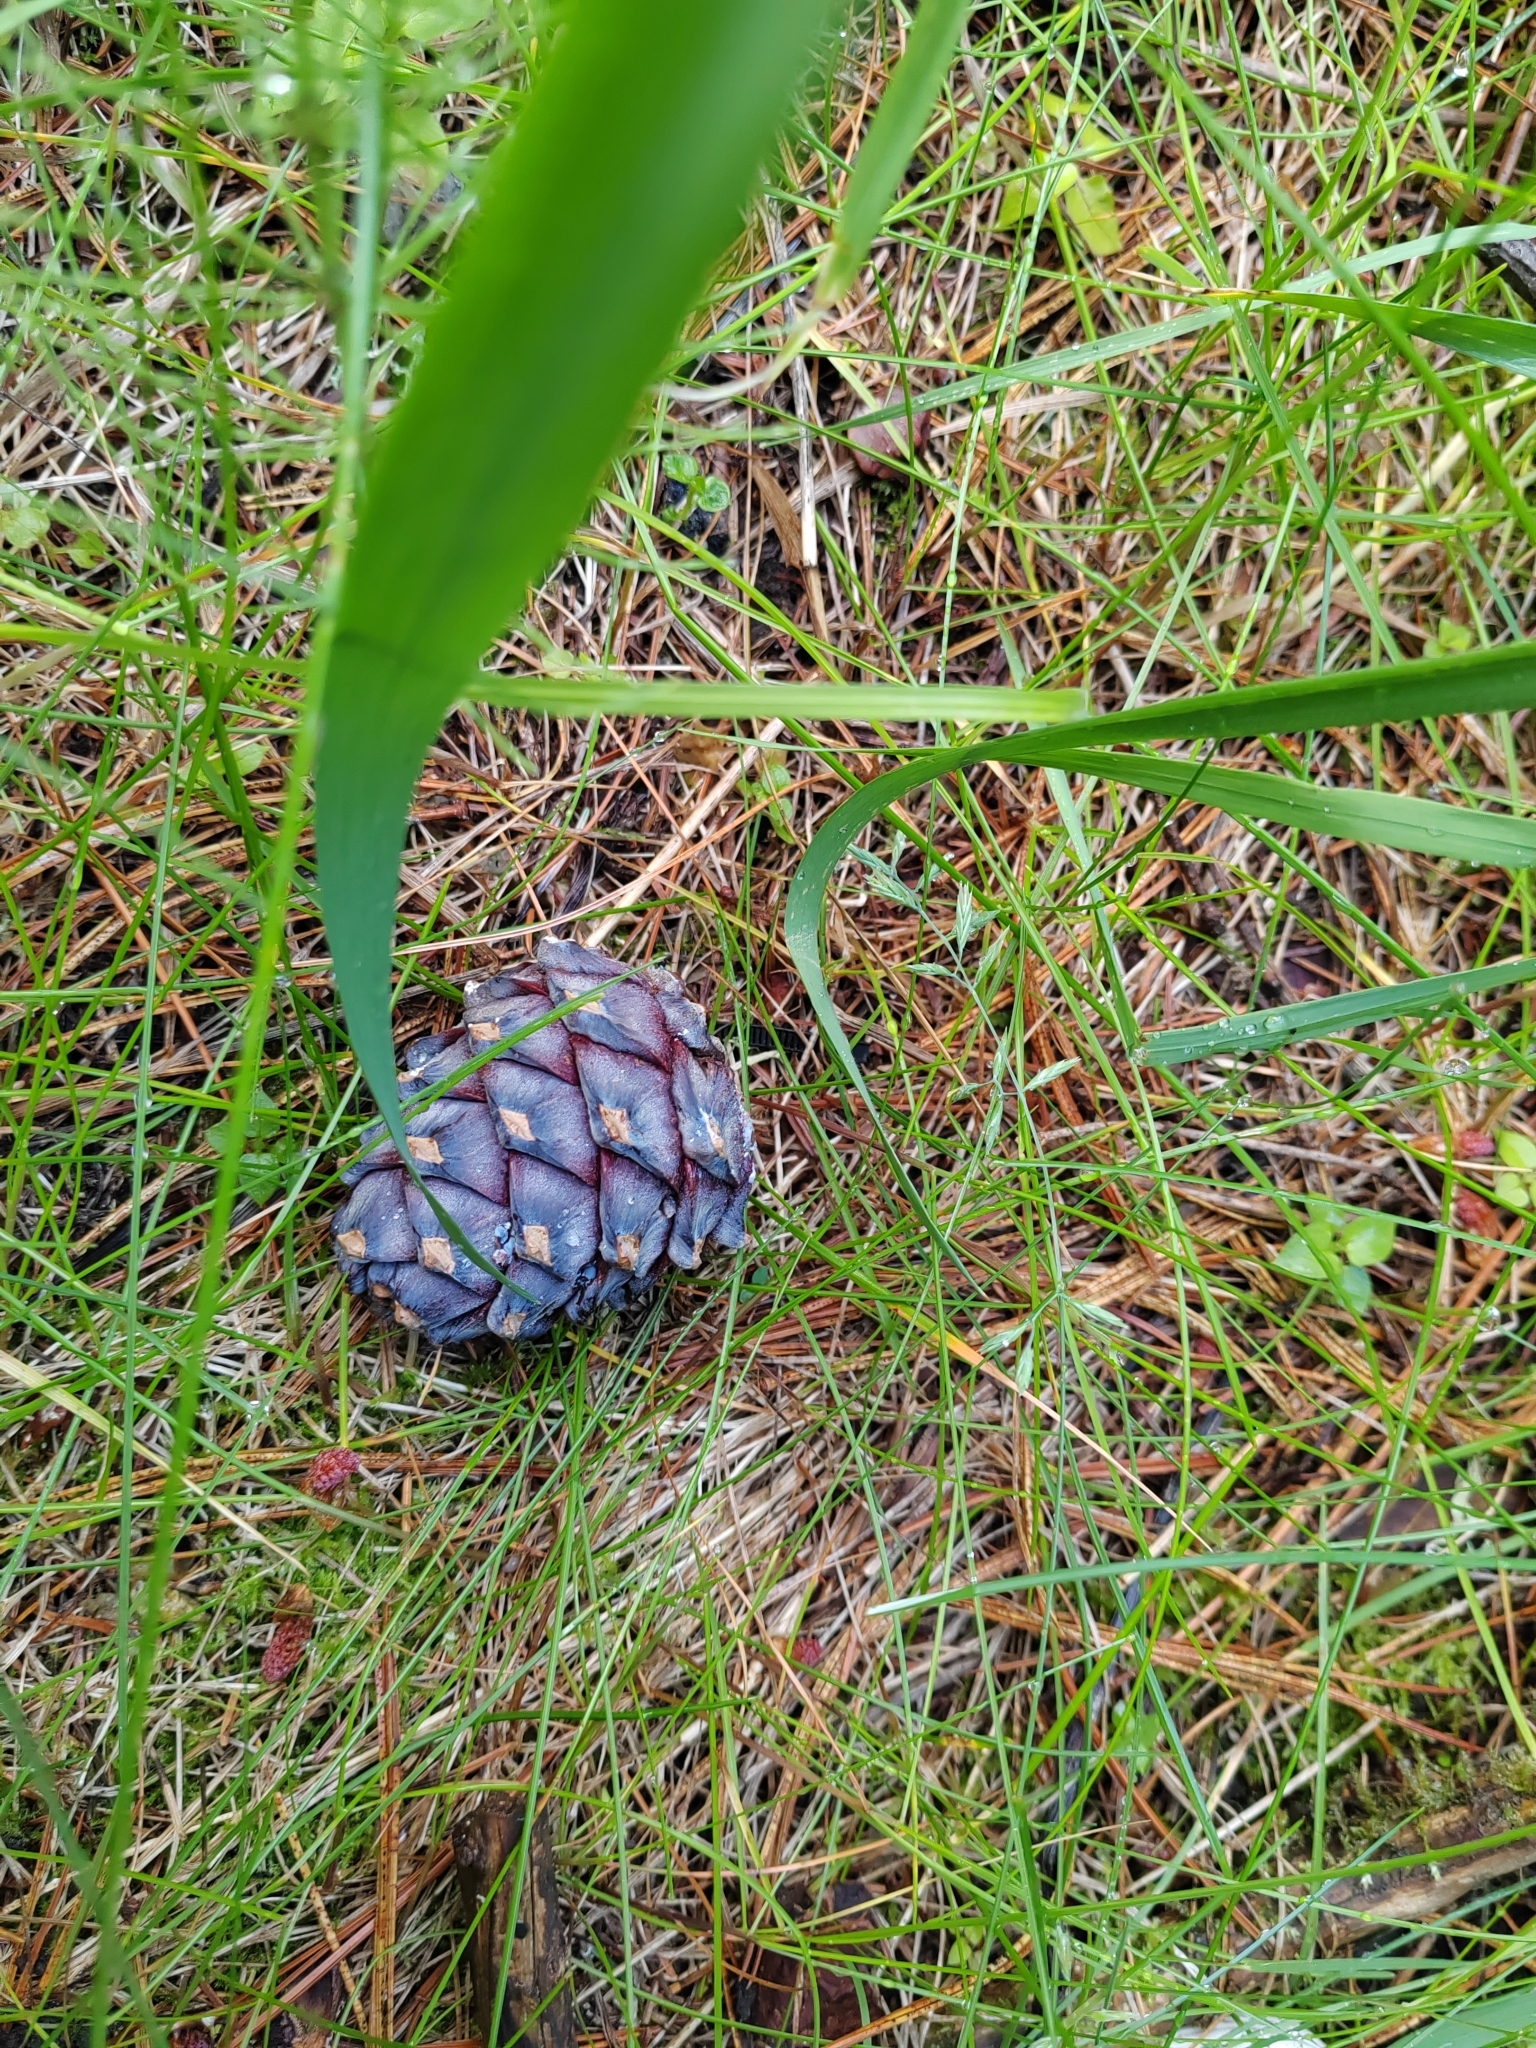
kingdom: Plantae
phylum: Tracheophyta
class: Pinopsida
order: Pinales
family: Pinaceae
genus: Pinus
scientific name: Pinus sibirica
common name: Siberian pine
